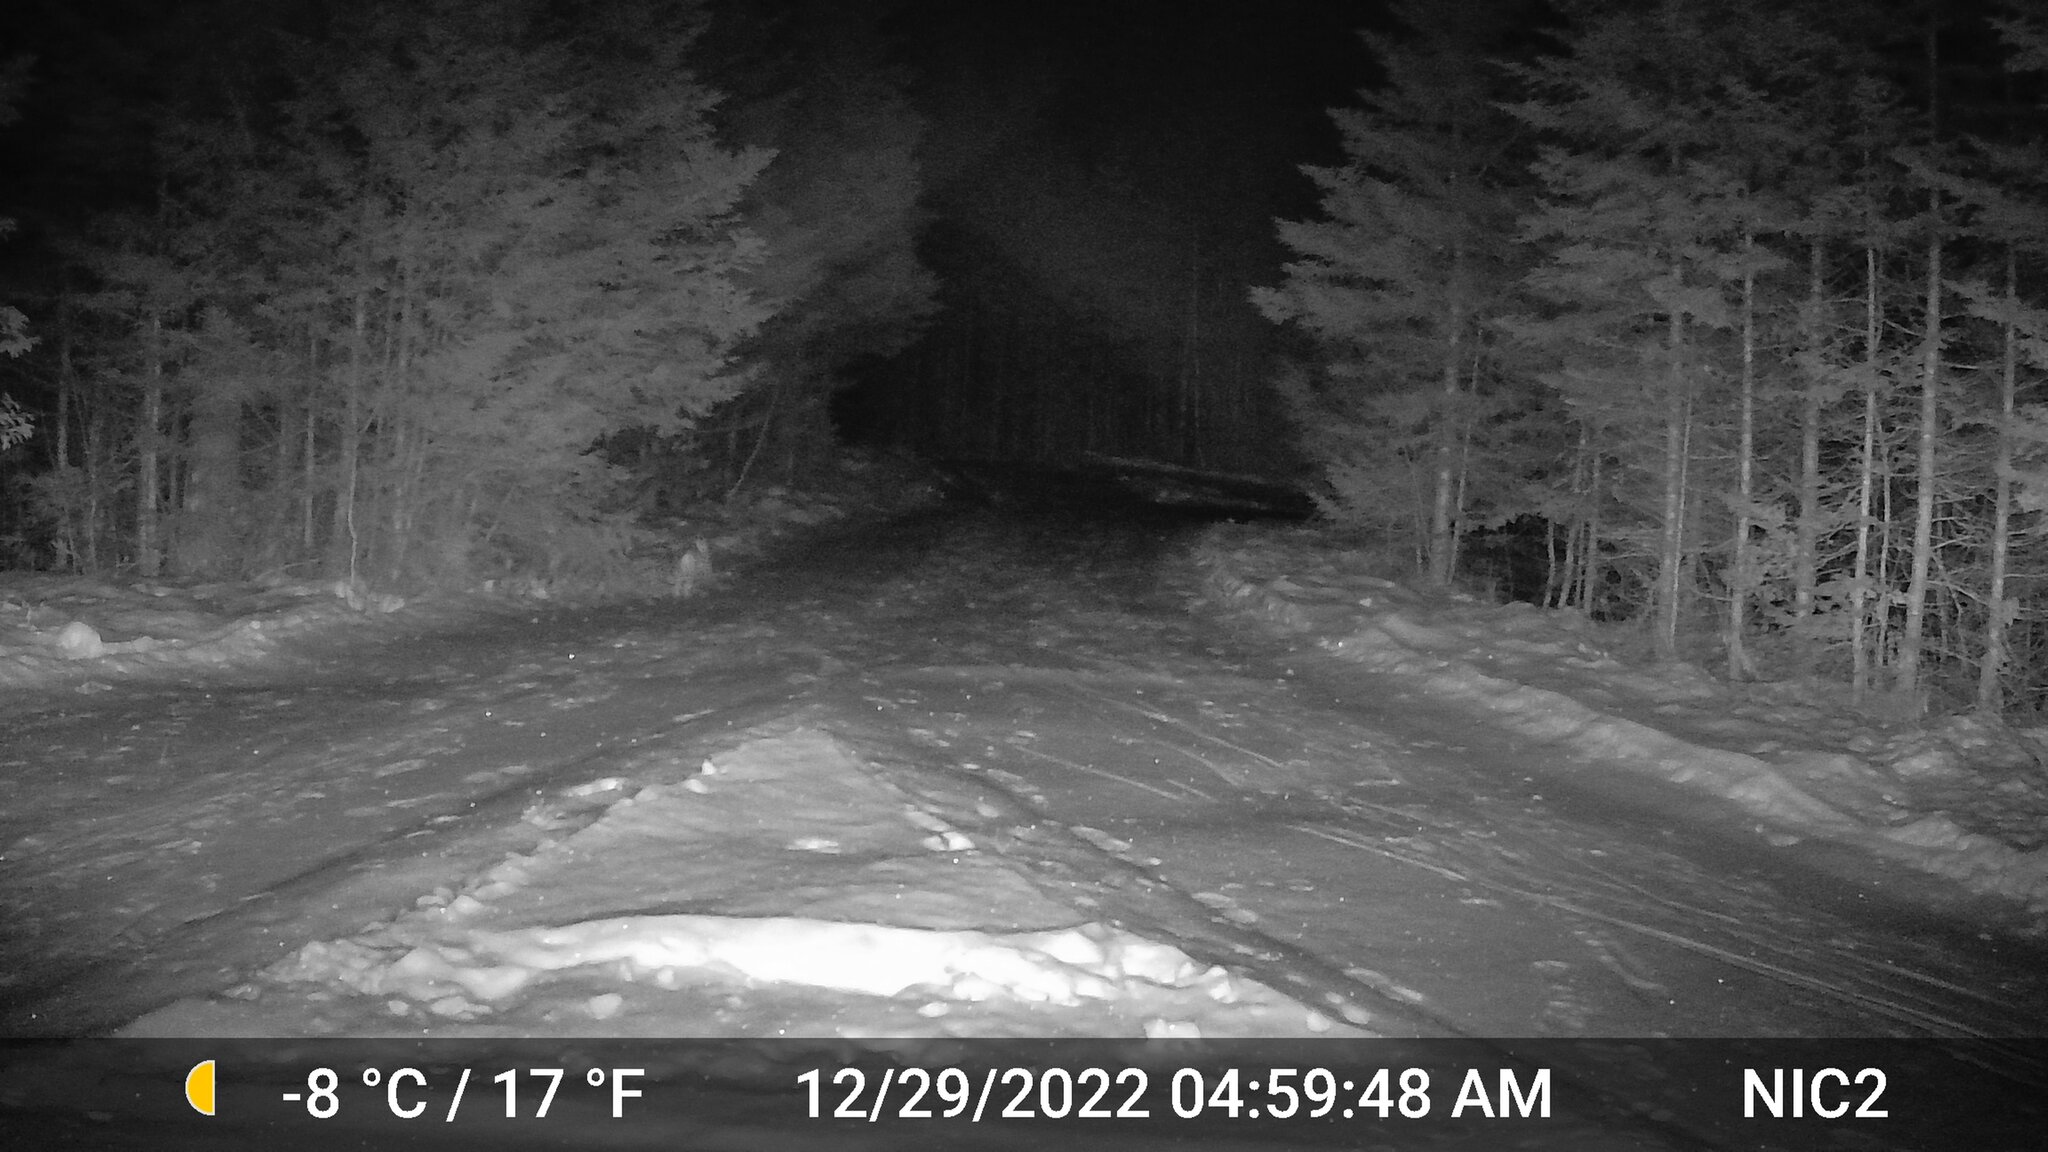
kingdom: Animalia
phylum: Chordata
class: Mammalia
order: Lagomorpha
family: Leporidae
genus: Lepus
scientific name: Lepus americanus
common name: Snowshoe hare
